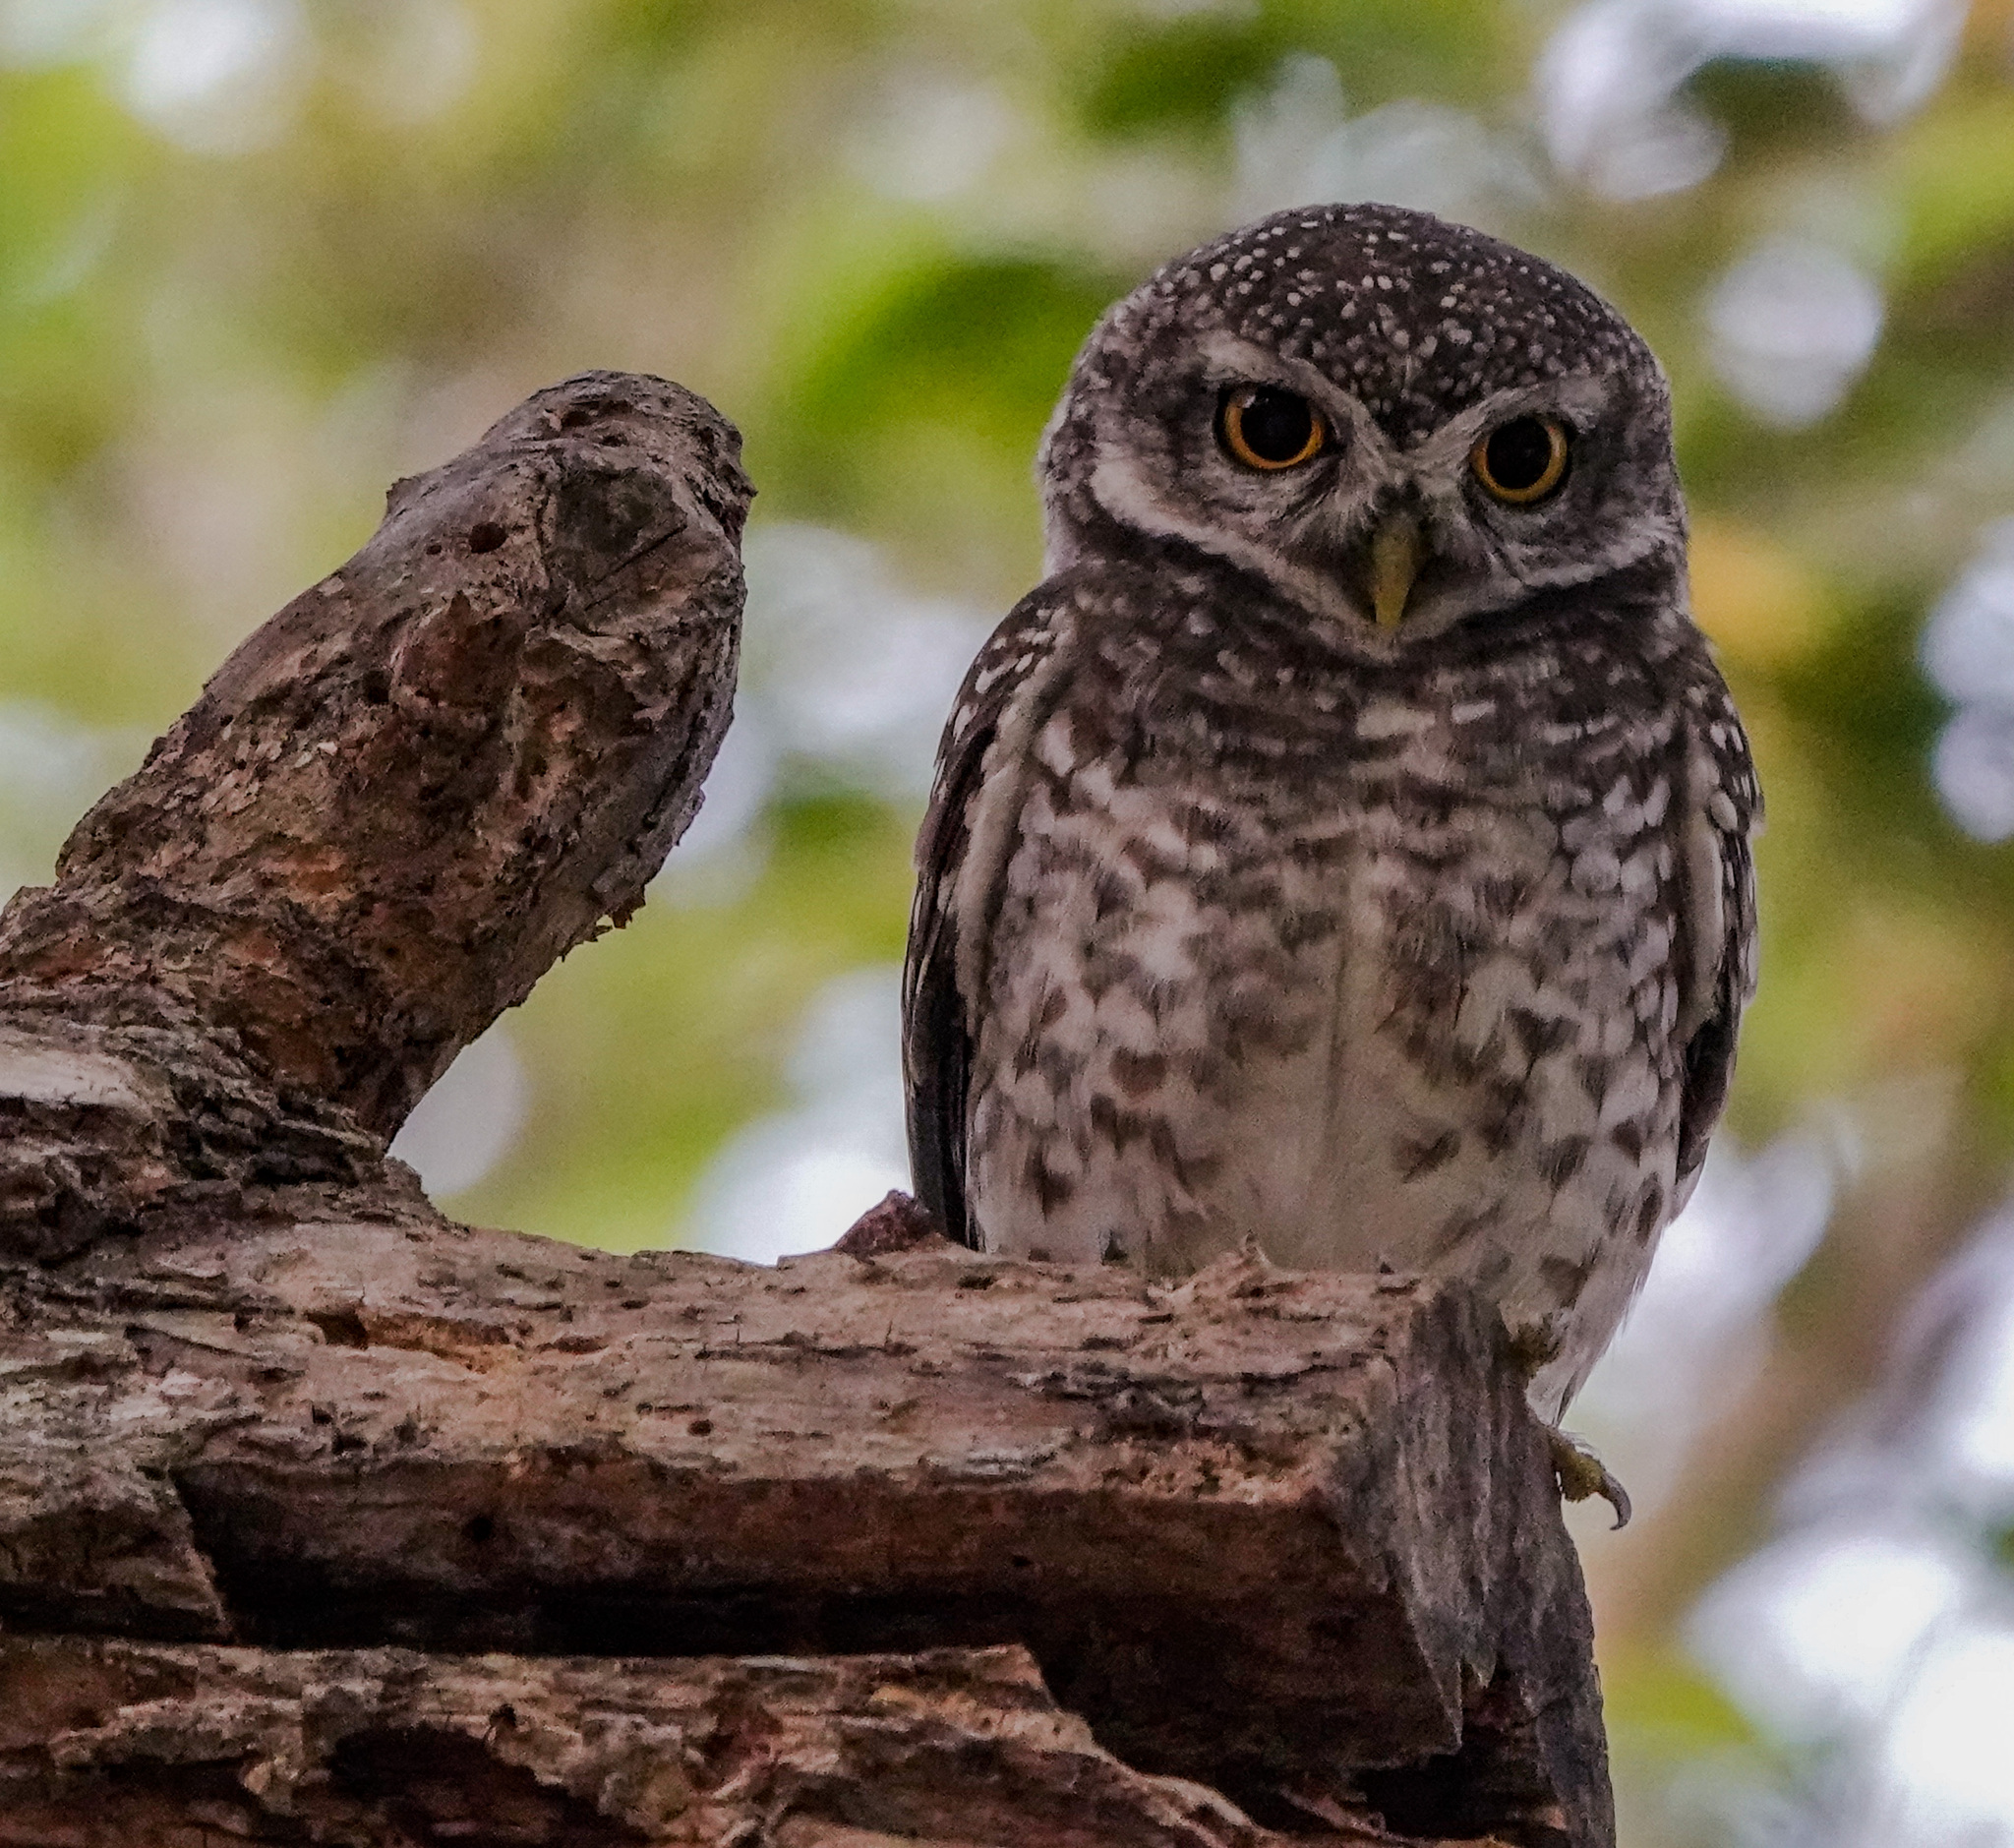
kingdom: Animalia
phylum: Chordata
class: Aves
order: Strigiformes
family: Strigidae
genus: Athene
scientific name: Athene brama
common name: Spotted owlet
